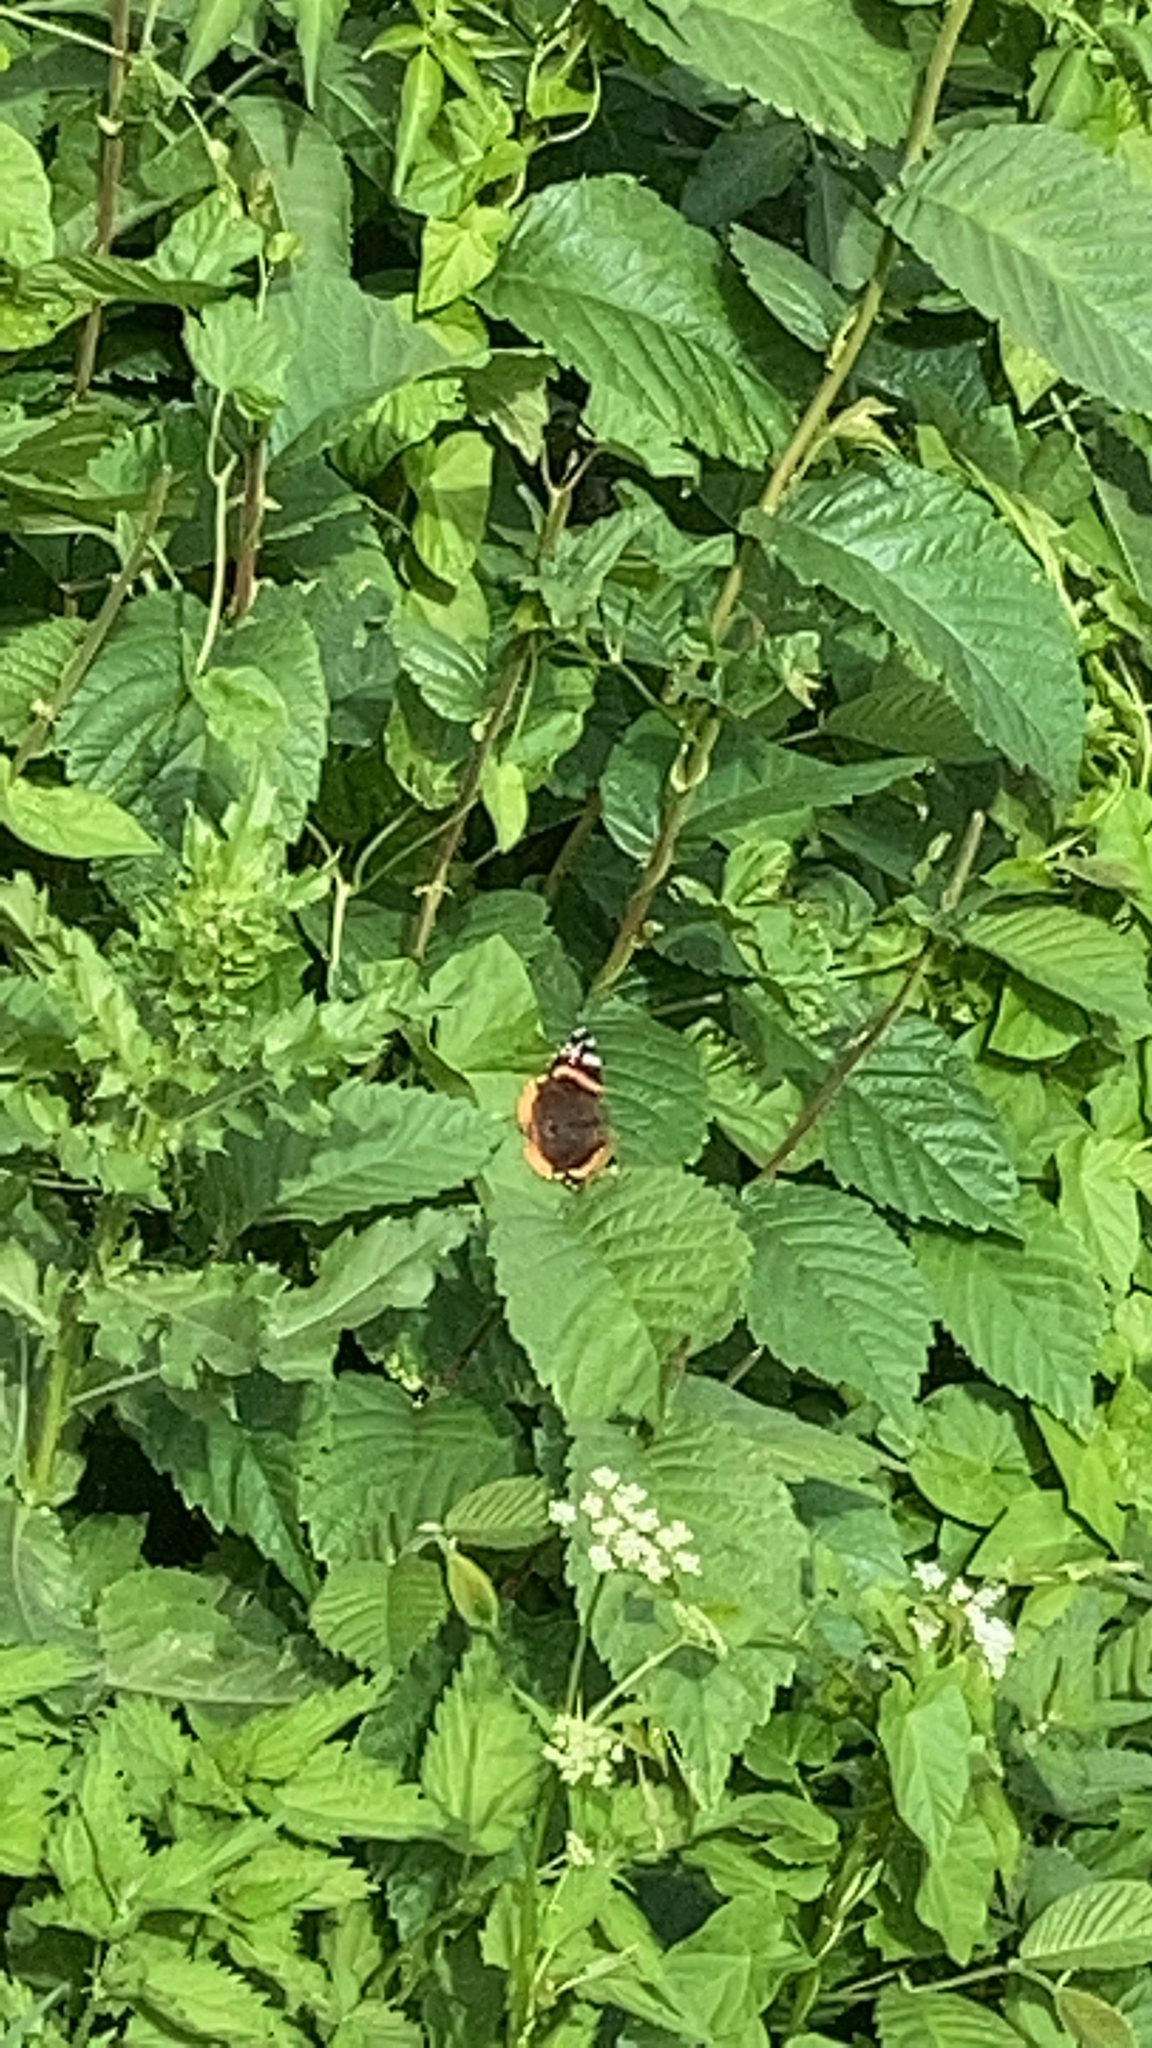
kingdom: Animalia
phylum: Arthropoda
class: Insecta
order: Lepidoptera
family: Nymphalidae
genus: Vanessa
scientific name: Vanessa atalanta
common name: Red admiral
